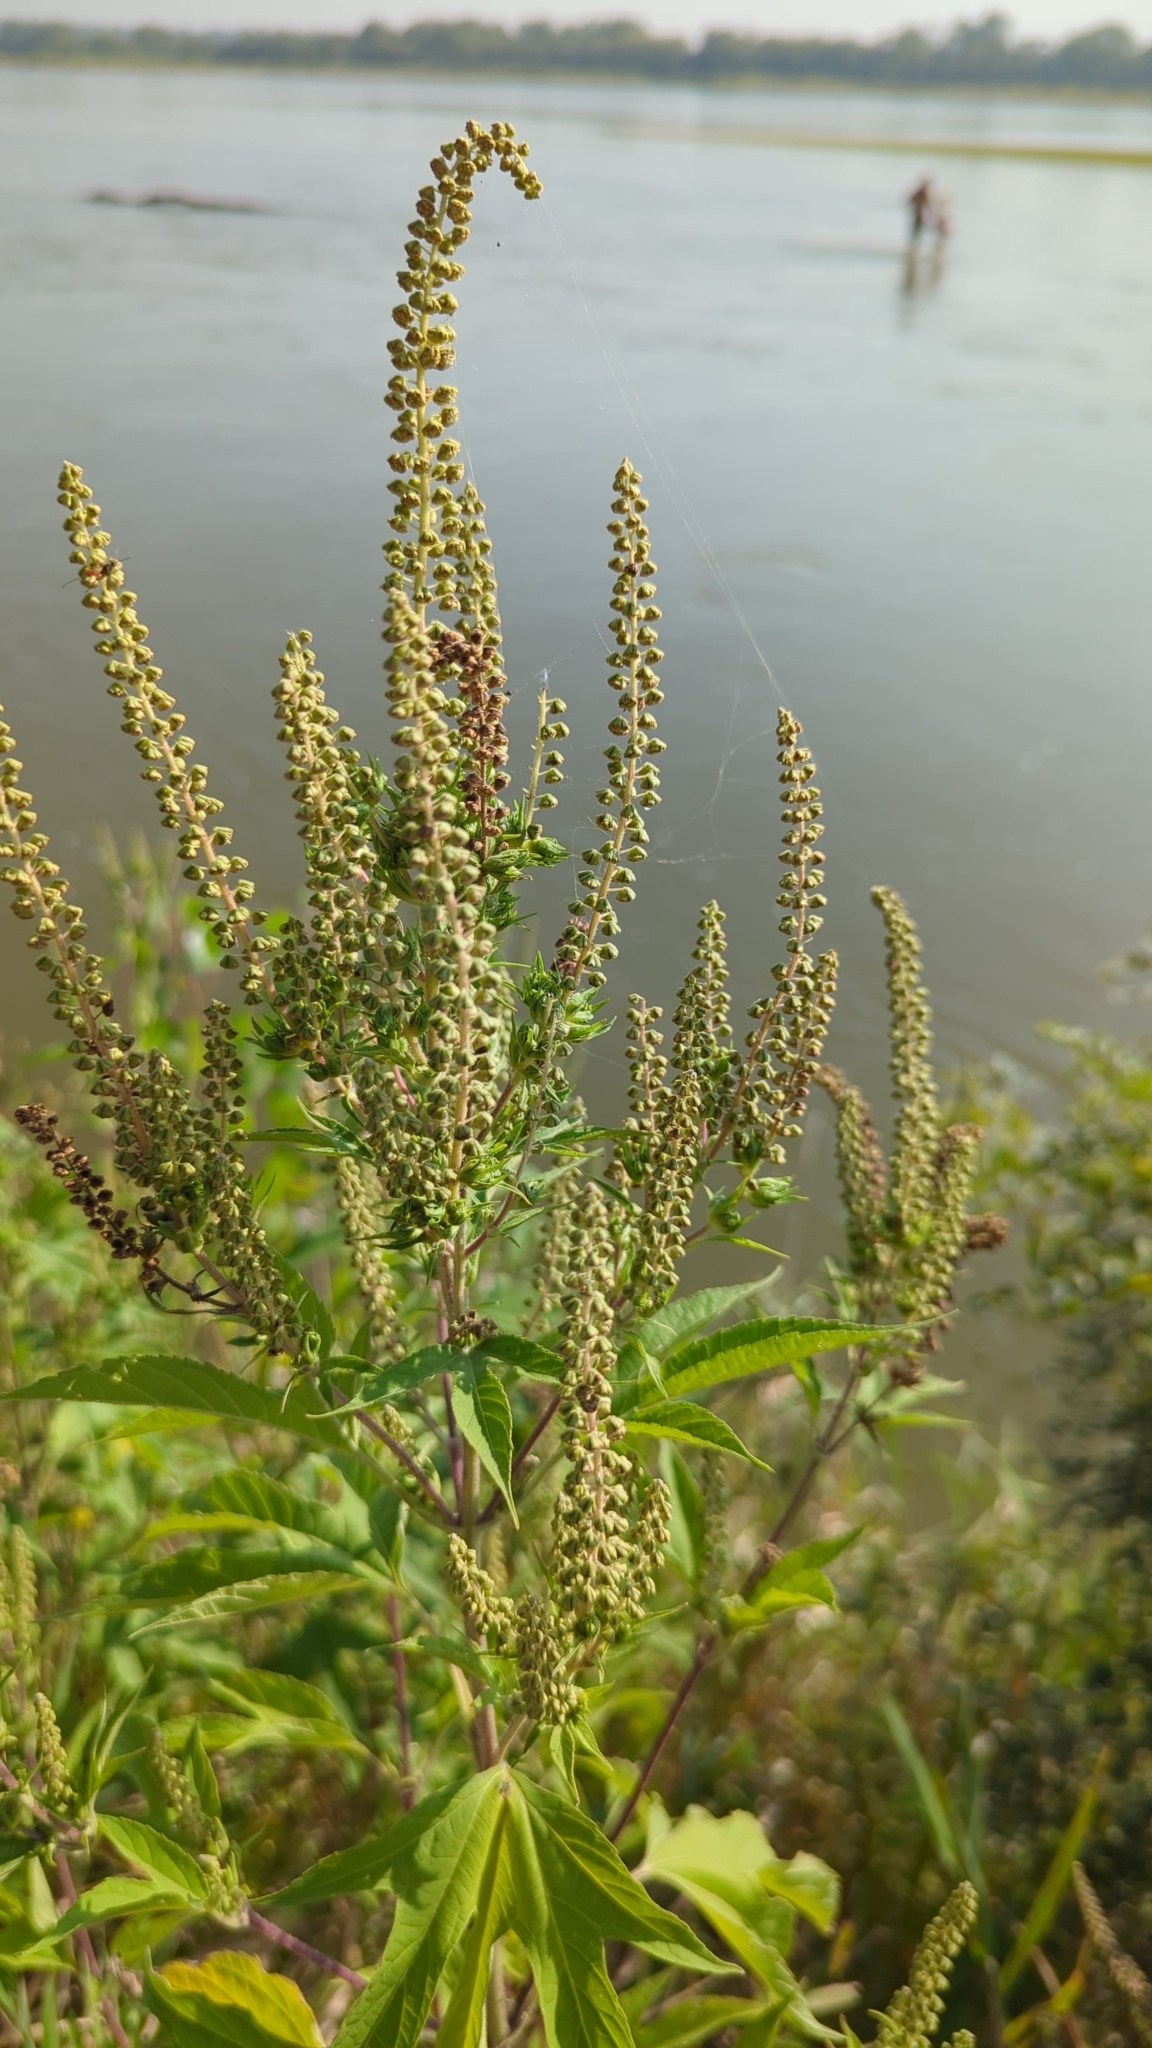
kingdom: Plantae
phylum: Tracheophyta
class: Magnoliopsida
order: Asterales
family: Asteraceae
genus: Ambrosia
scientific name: Ambrosia trifida
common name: Giant ragweed
